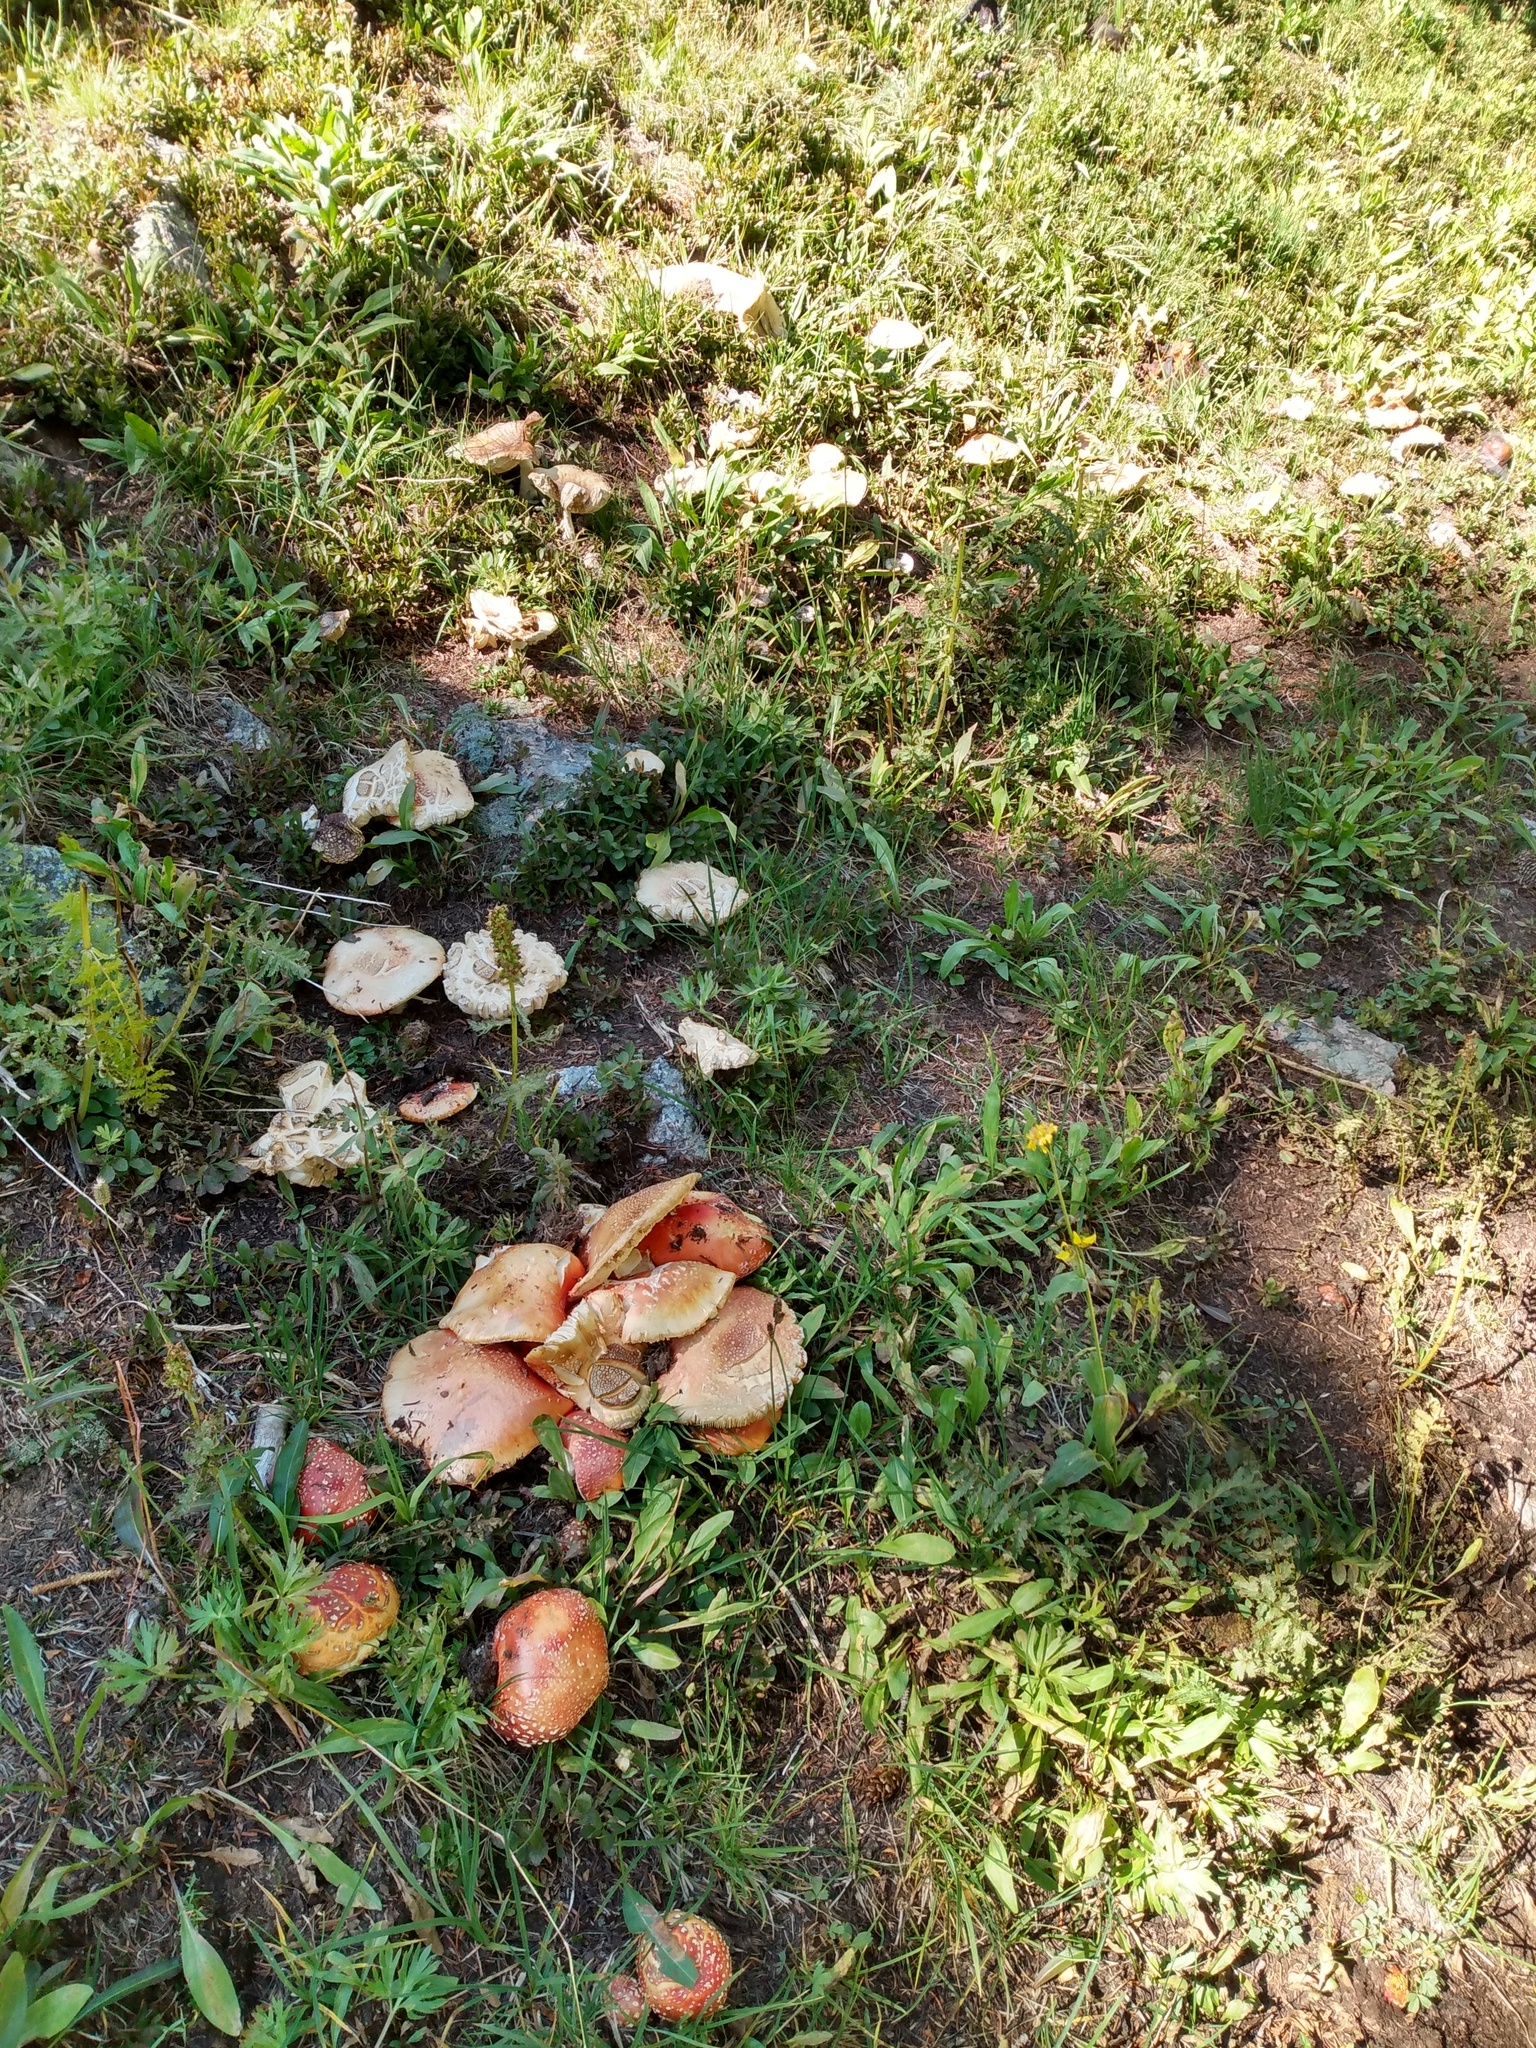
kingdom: Fungi
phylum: Basidiomycota
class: Agaricomycetes
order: Agaricales
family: Amanitaceae
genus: Amanita
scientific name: Amanita muscaria
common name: Fly agaric
